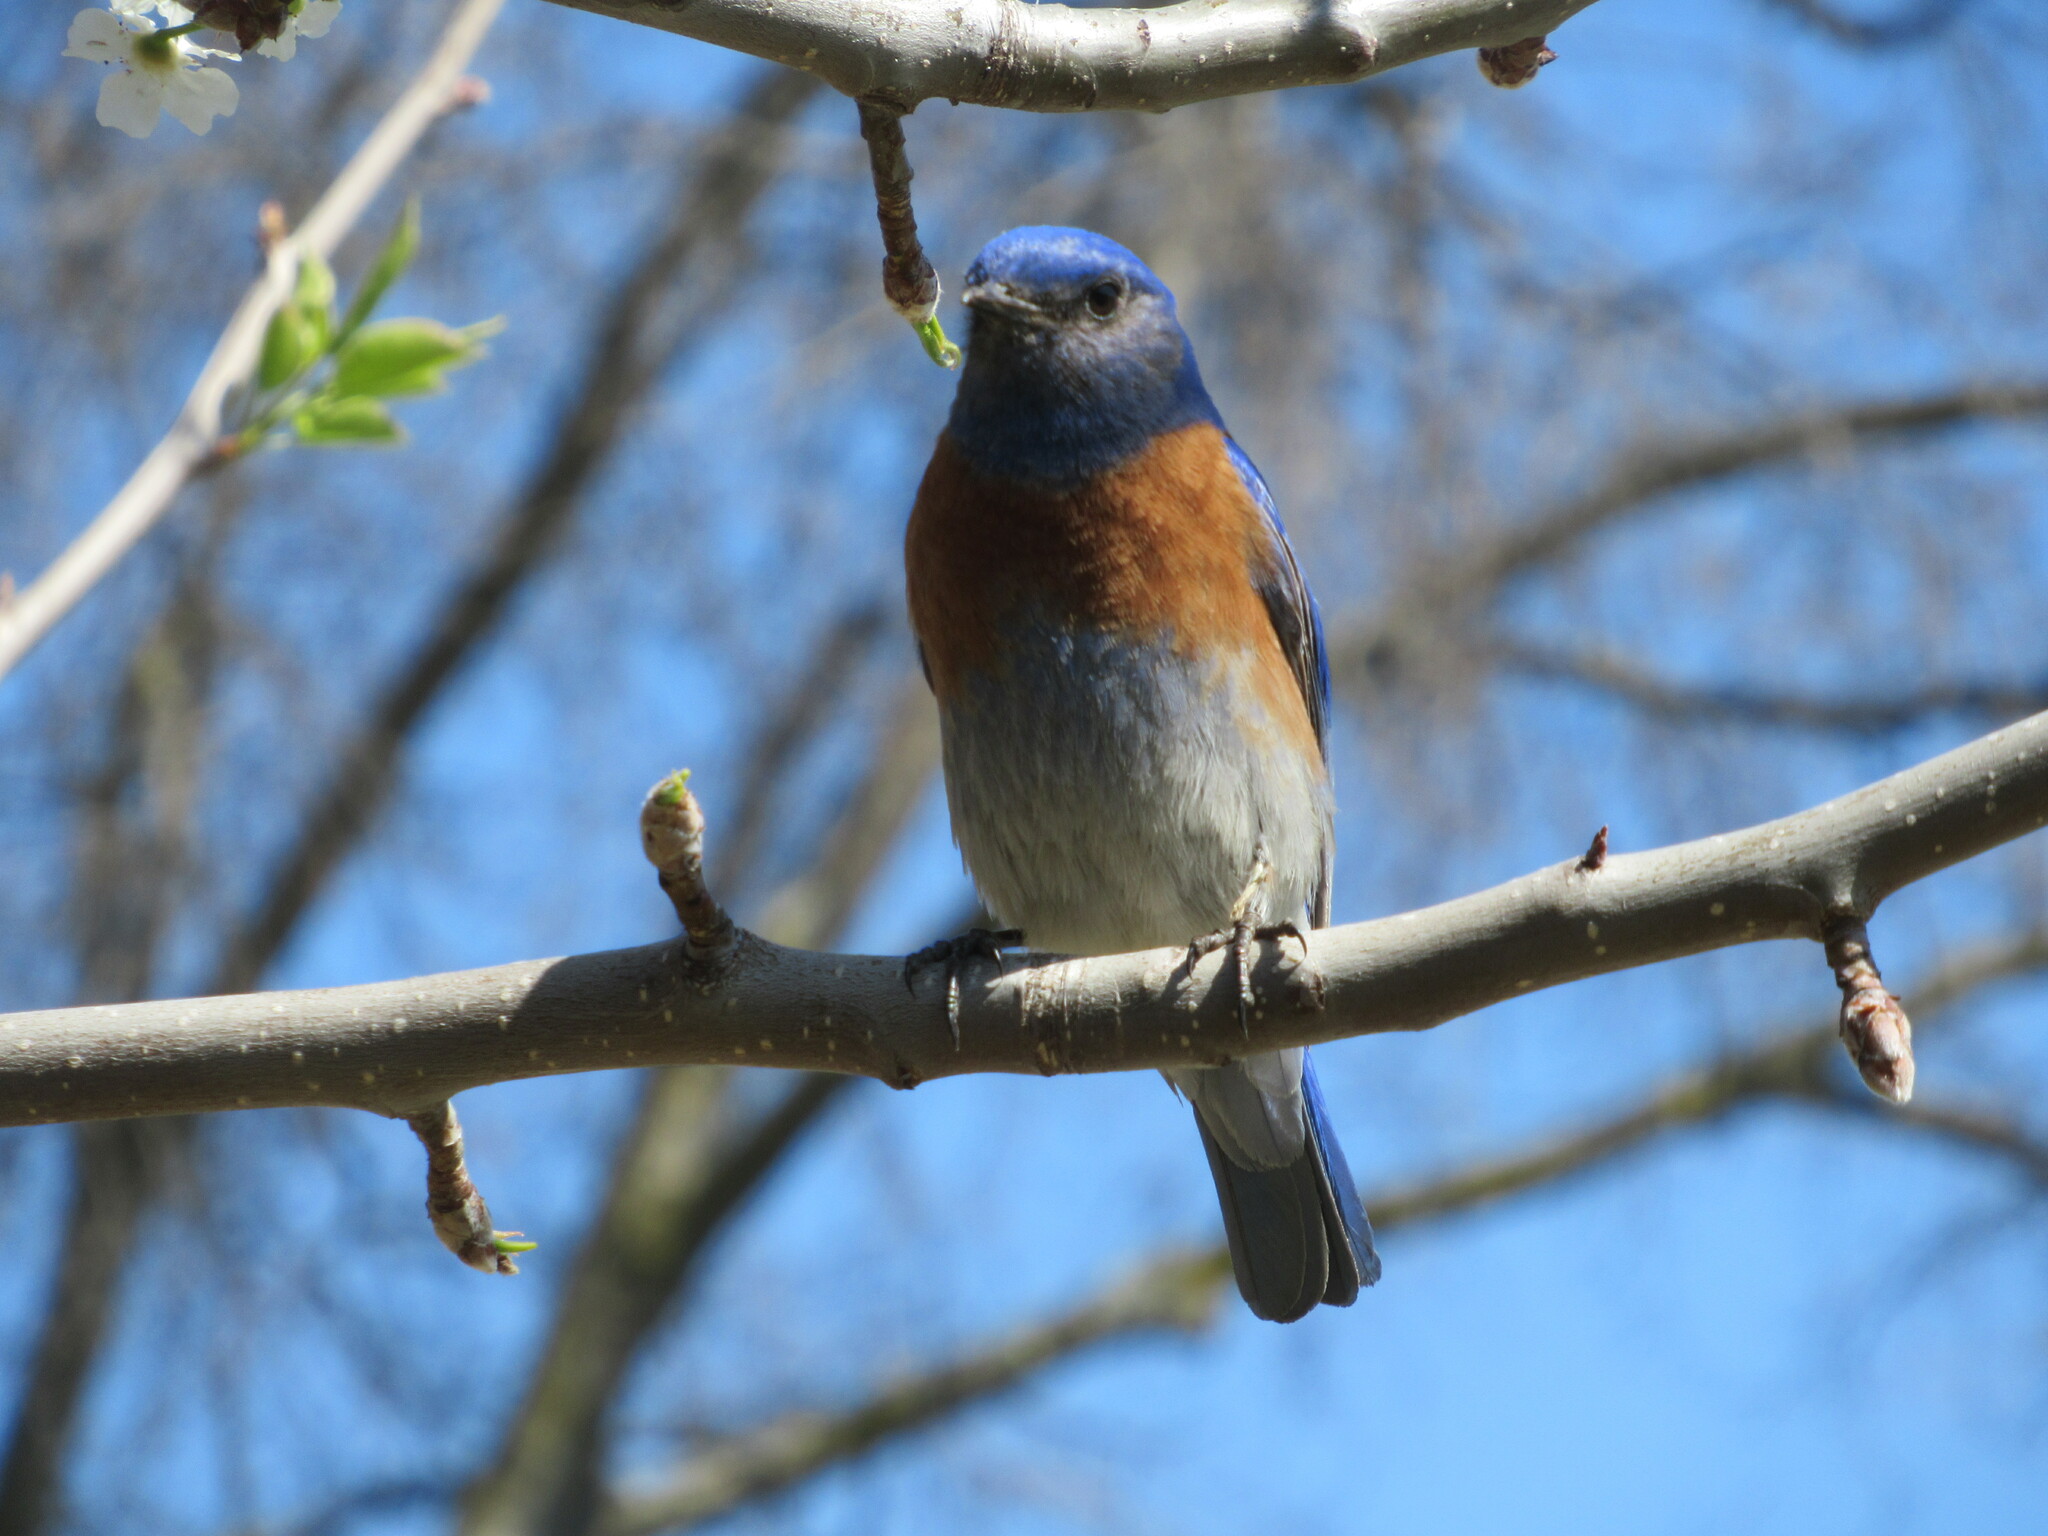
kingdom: Animalia
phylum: Chordata
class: Aves
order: Passeriformes
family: Turdidae
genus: Sialia
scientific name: Sialia mexicana
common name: Western bluebird
